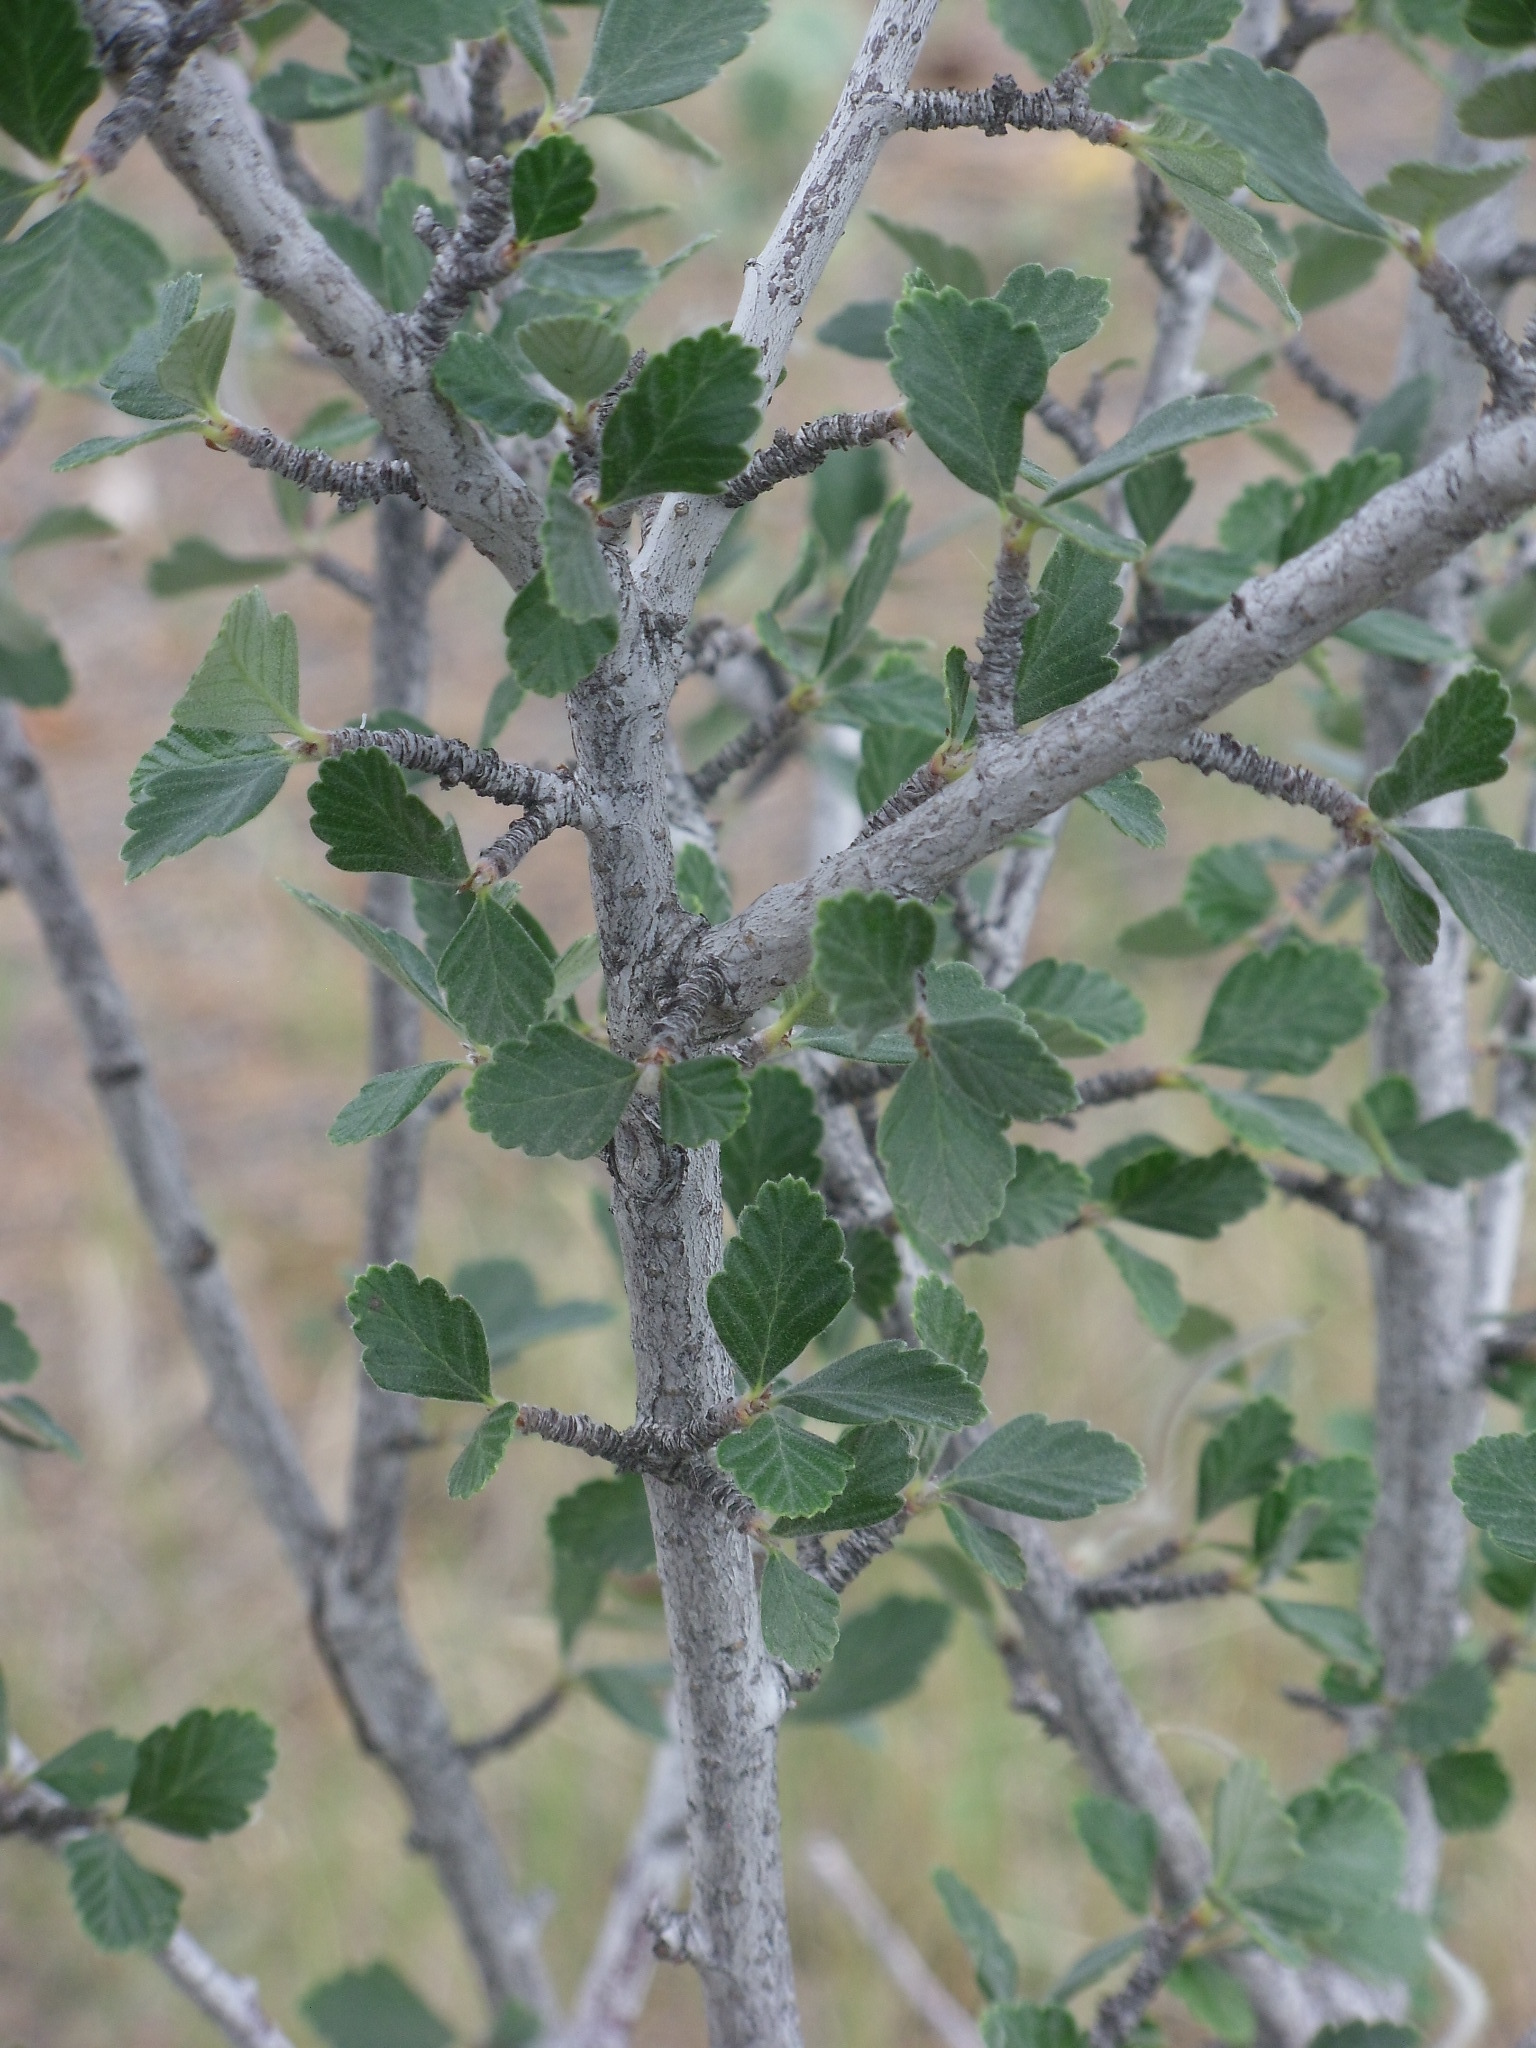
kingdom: Plantae
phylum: Tracheophyta
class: Magnoliopsida
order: Rosales
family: Rosaceae
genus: Cercocarpus
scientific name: Cercocarpus montanus
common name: Alder-leaf cercocarpus
